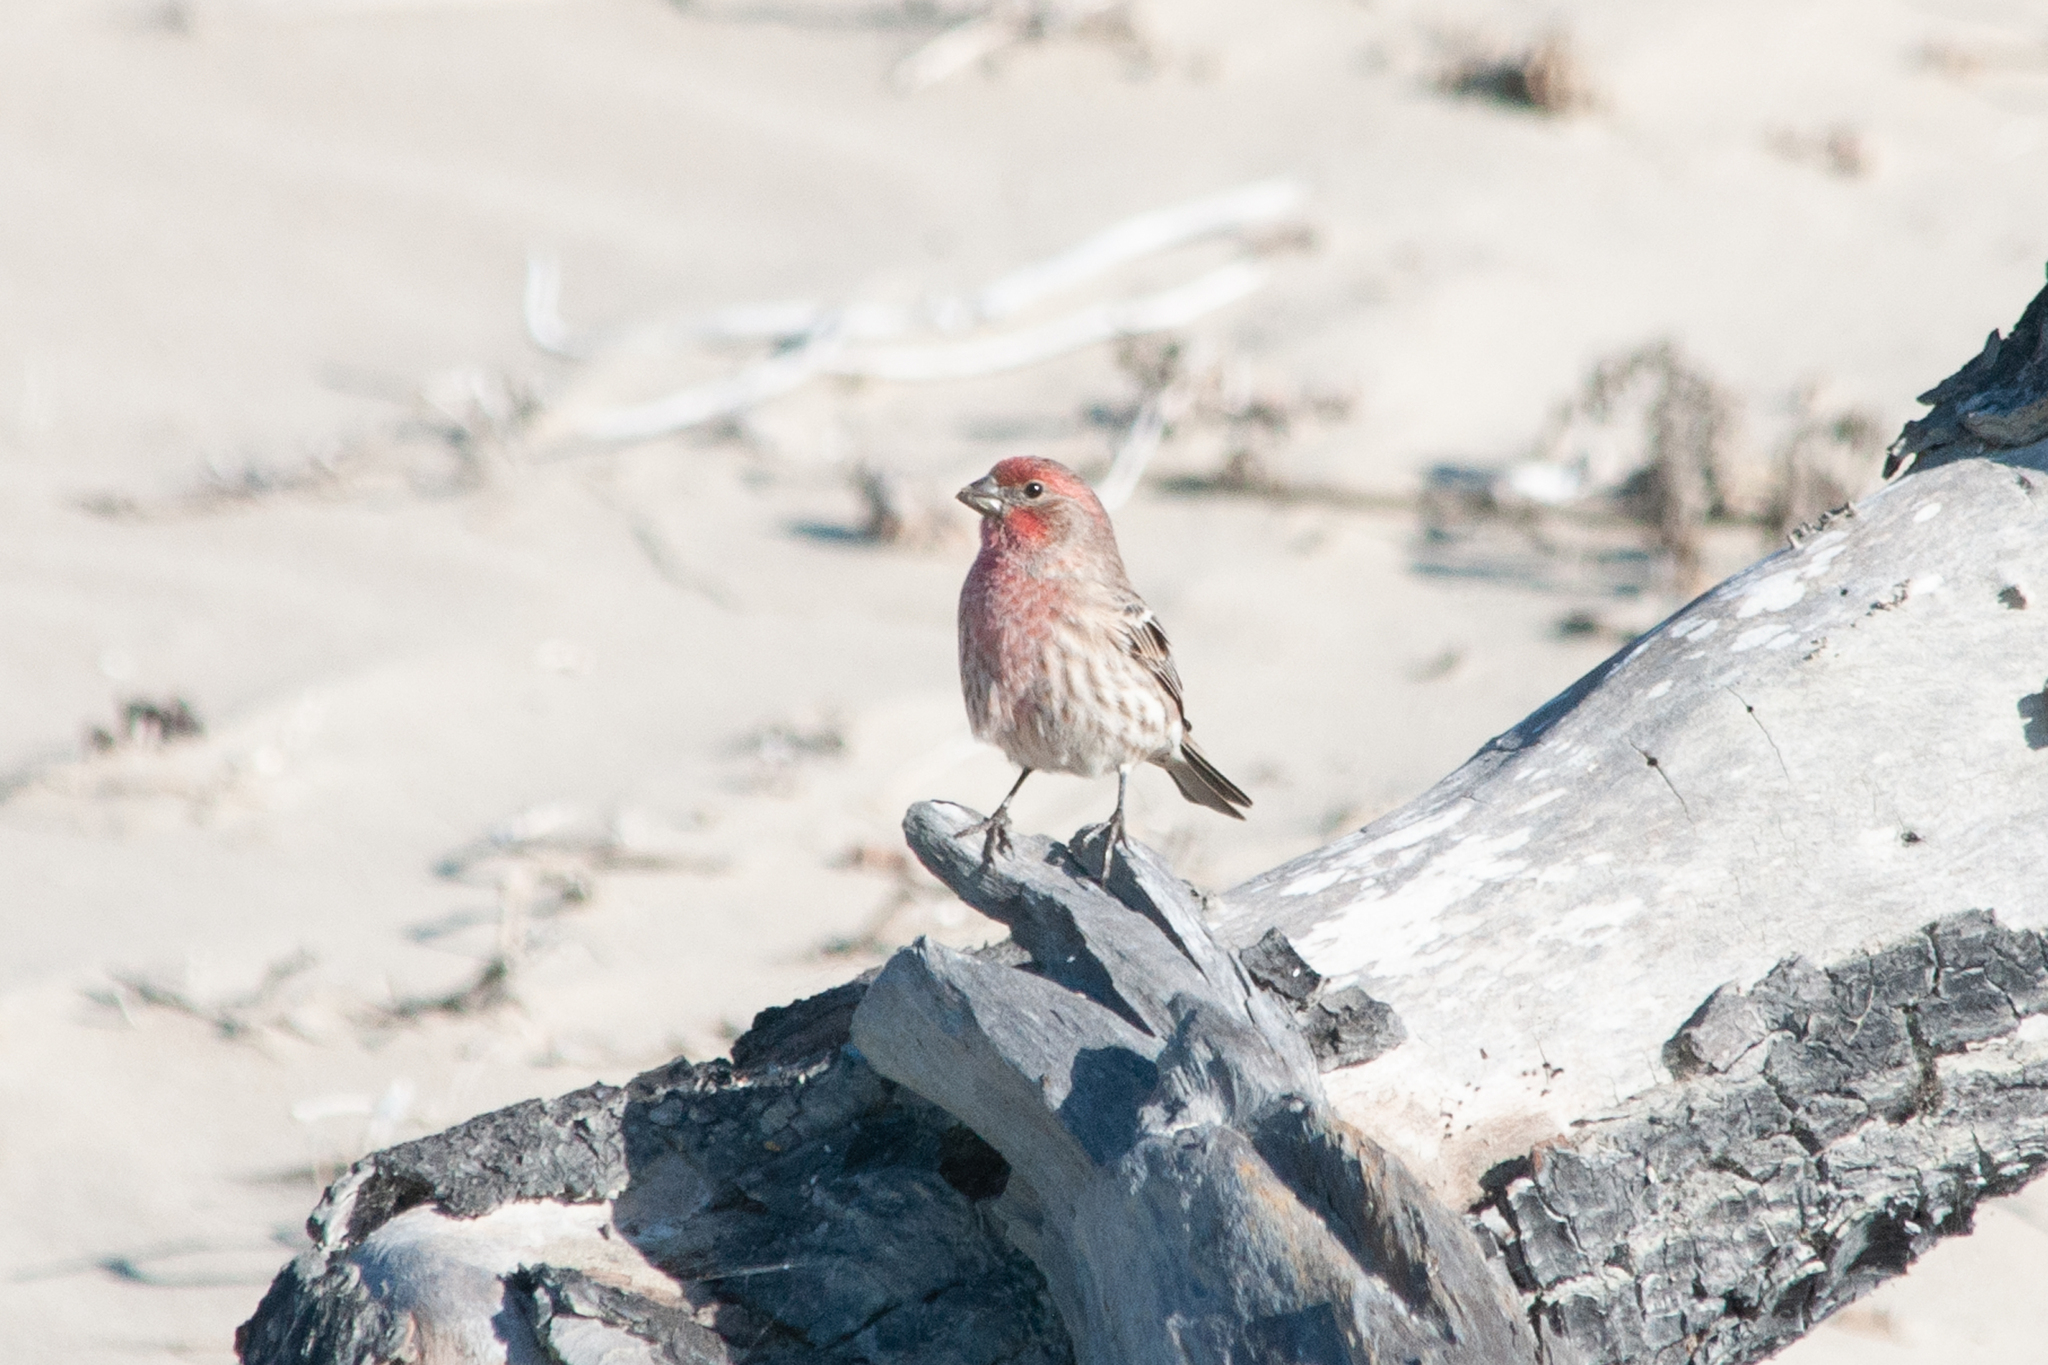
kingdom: Animalia
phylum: Chordata
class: Aves
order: Passeriformes
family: Fringillidae
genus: Haemorhous
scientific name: Haemorhous mexicanus
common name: House finch
